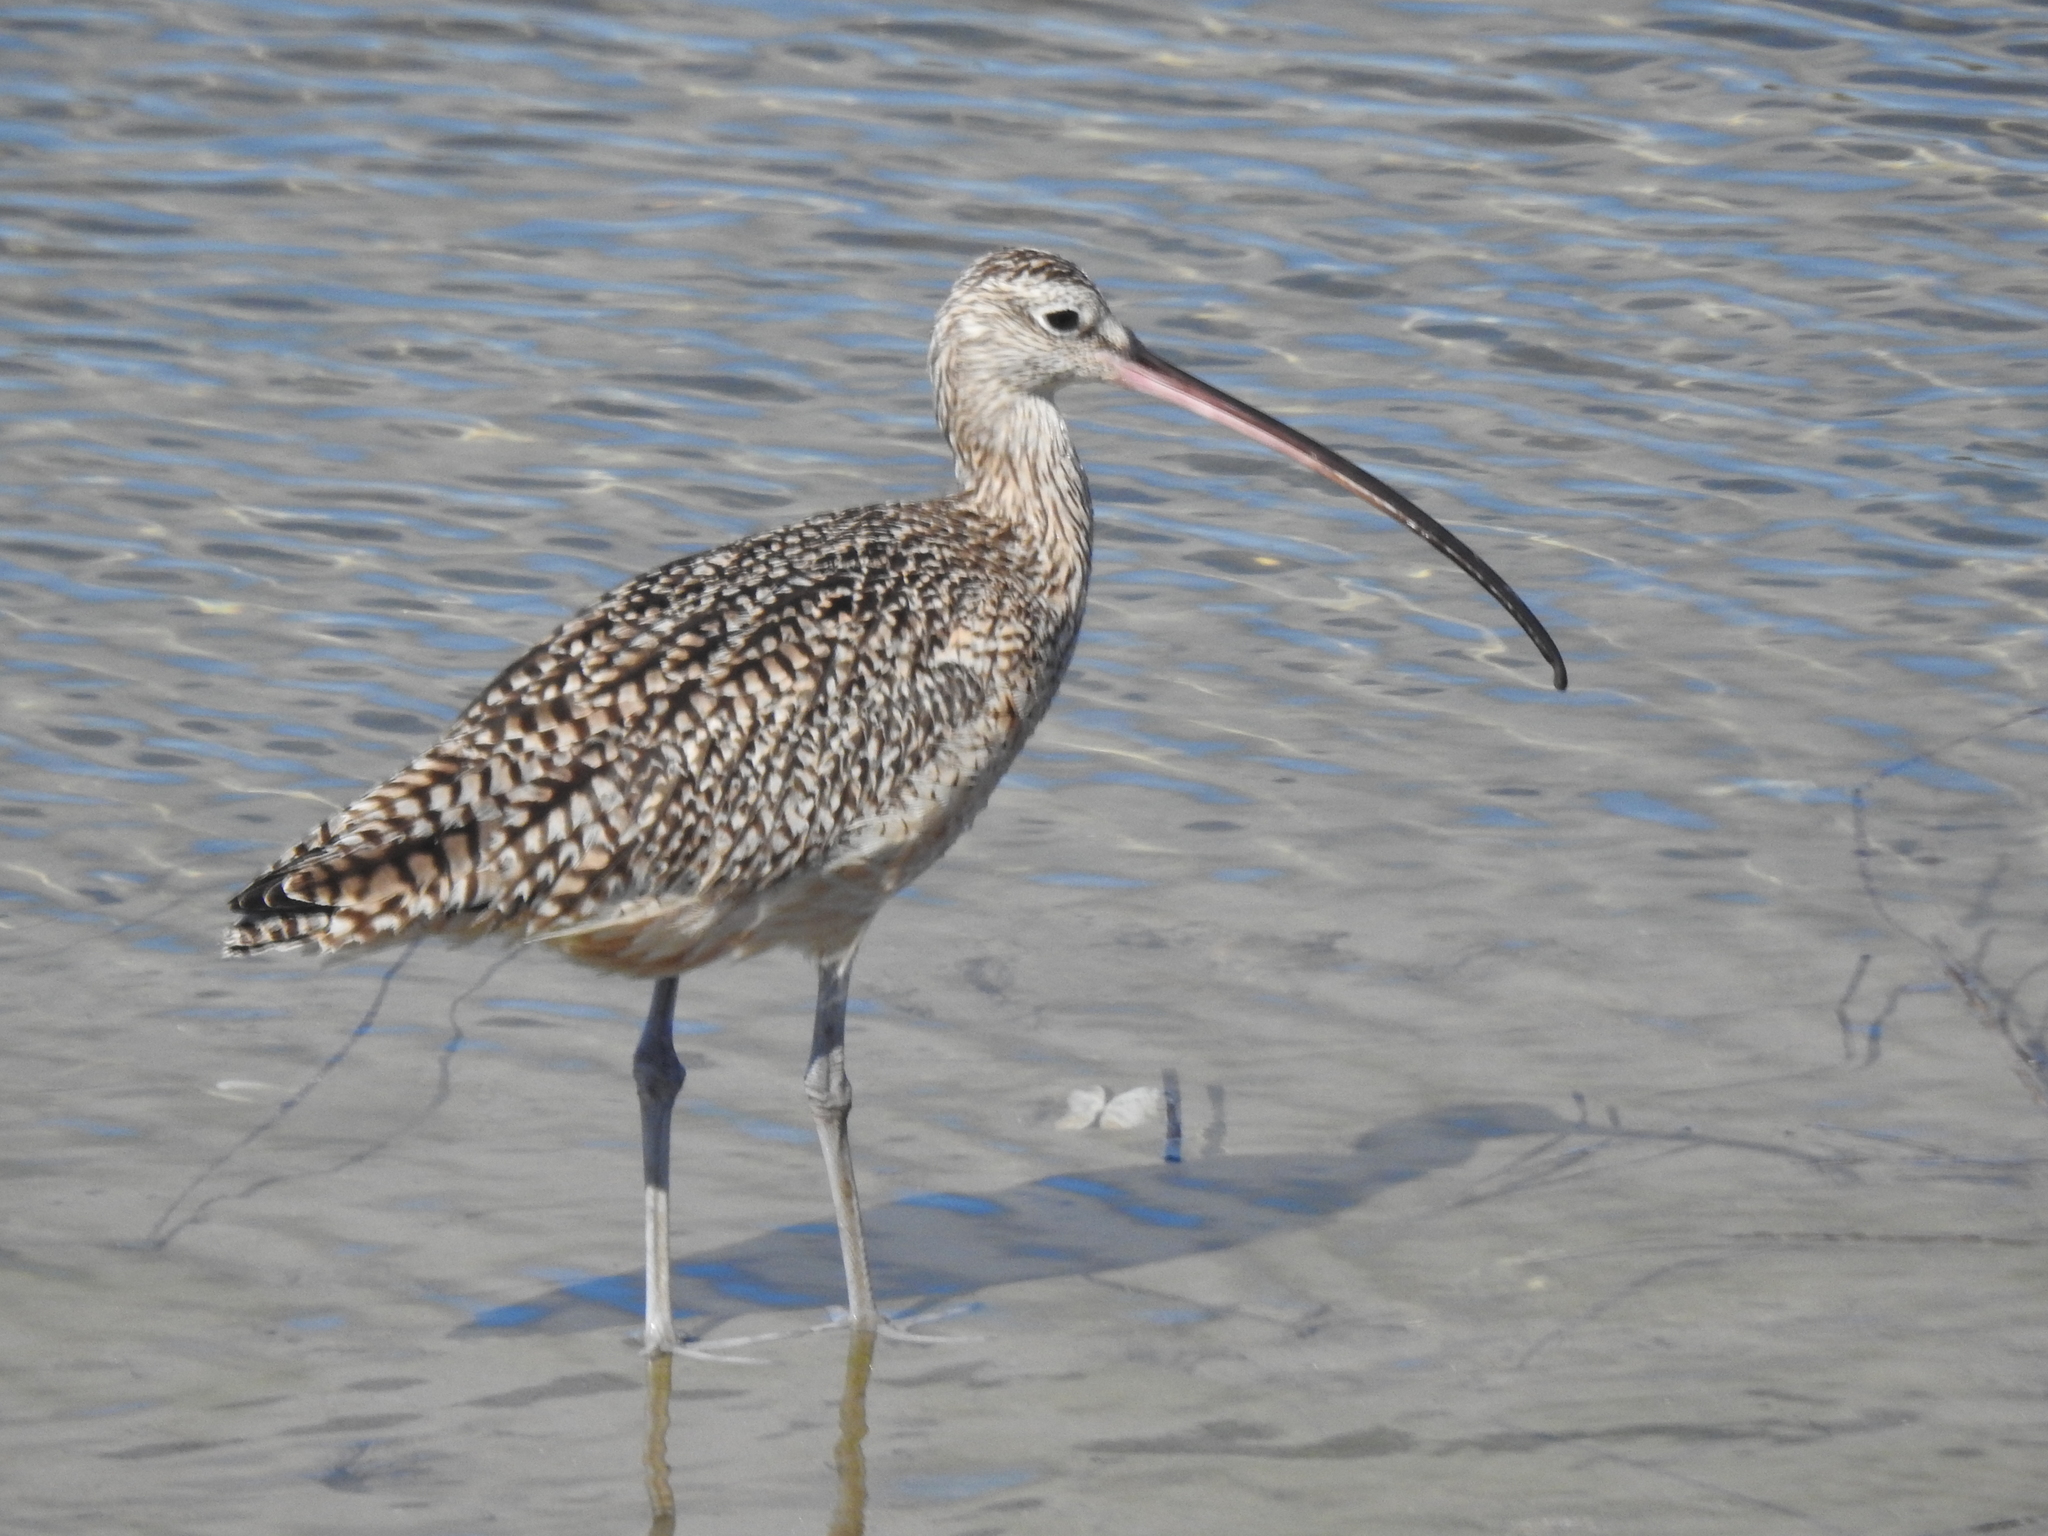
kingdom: Animalia
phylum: Chordata
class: Aves
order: Charadriiformes
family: Scolopacidae
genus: Numenius
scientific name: Numenius americanus
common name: Long-billed curlew
